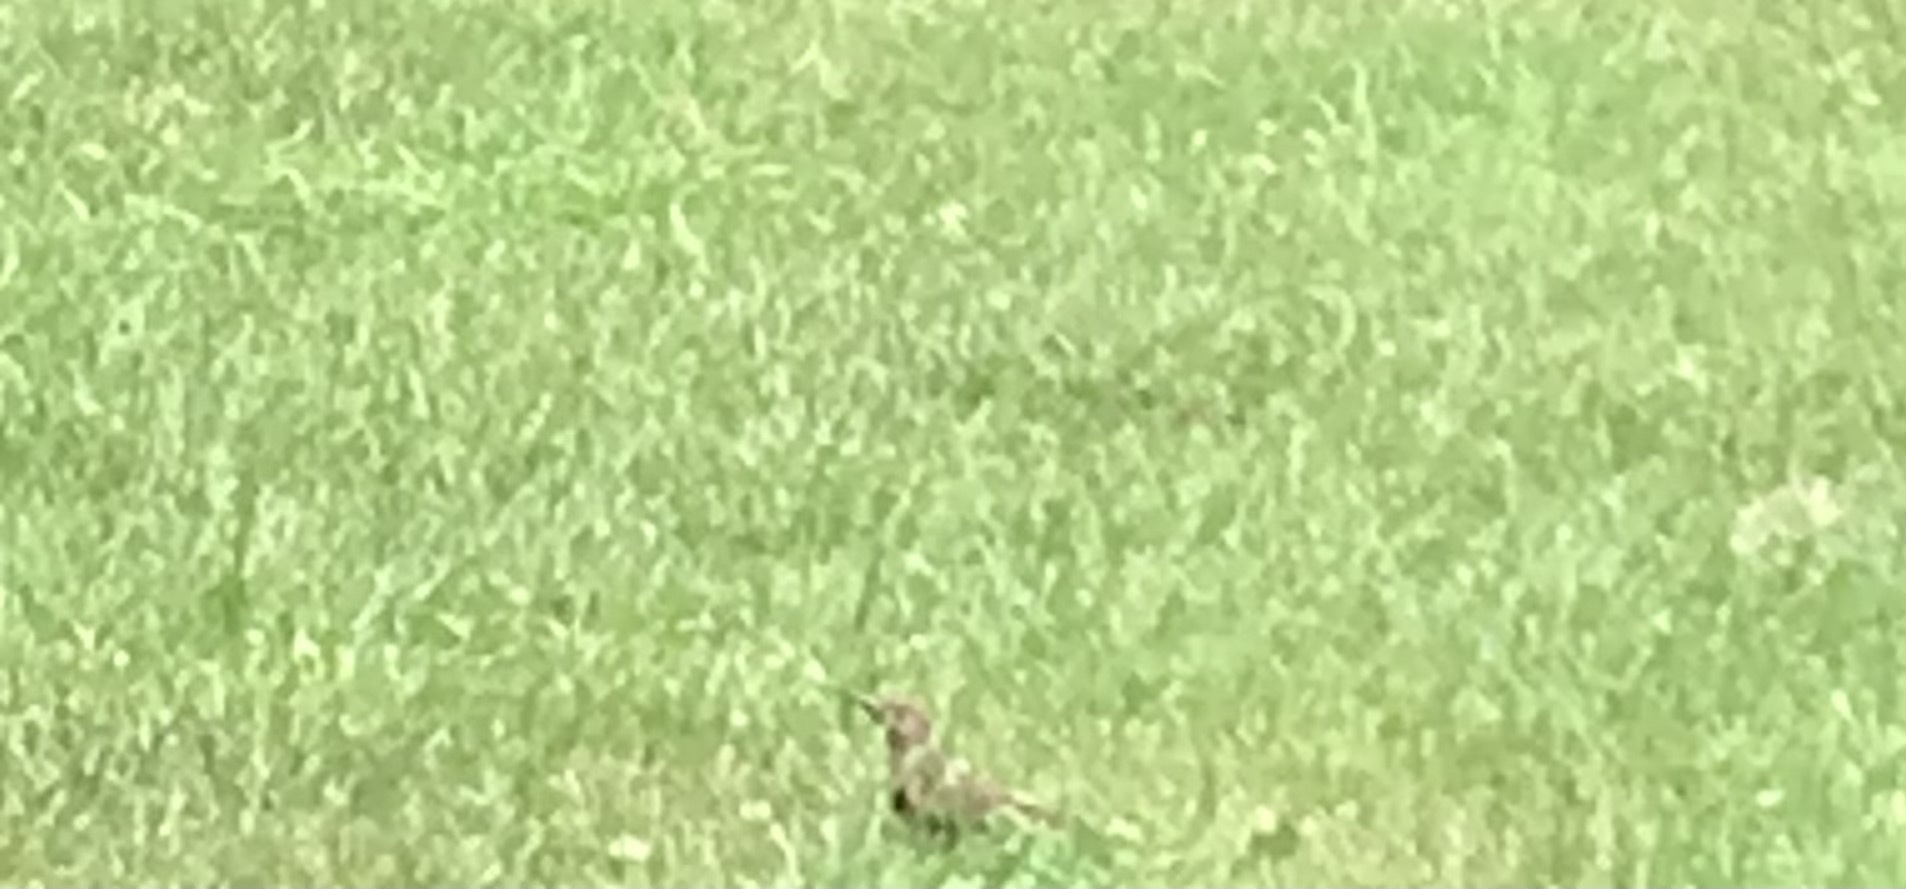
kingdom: Animalia
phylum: Chordata
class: Aves
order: Piciformes
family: Picidae
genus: Colaptes
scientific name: Colaptes auratus
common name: Northern flicker
